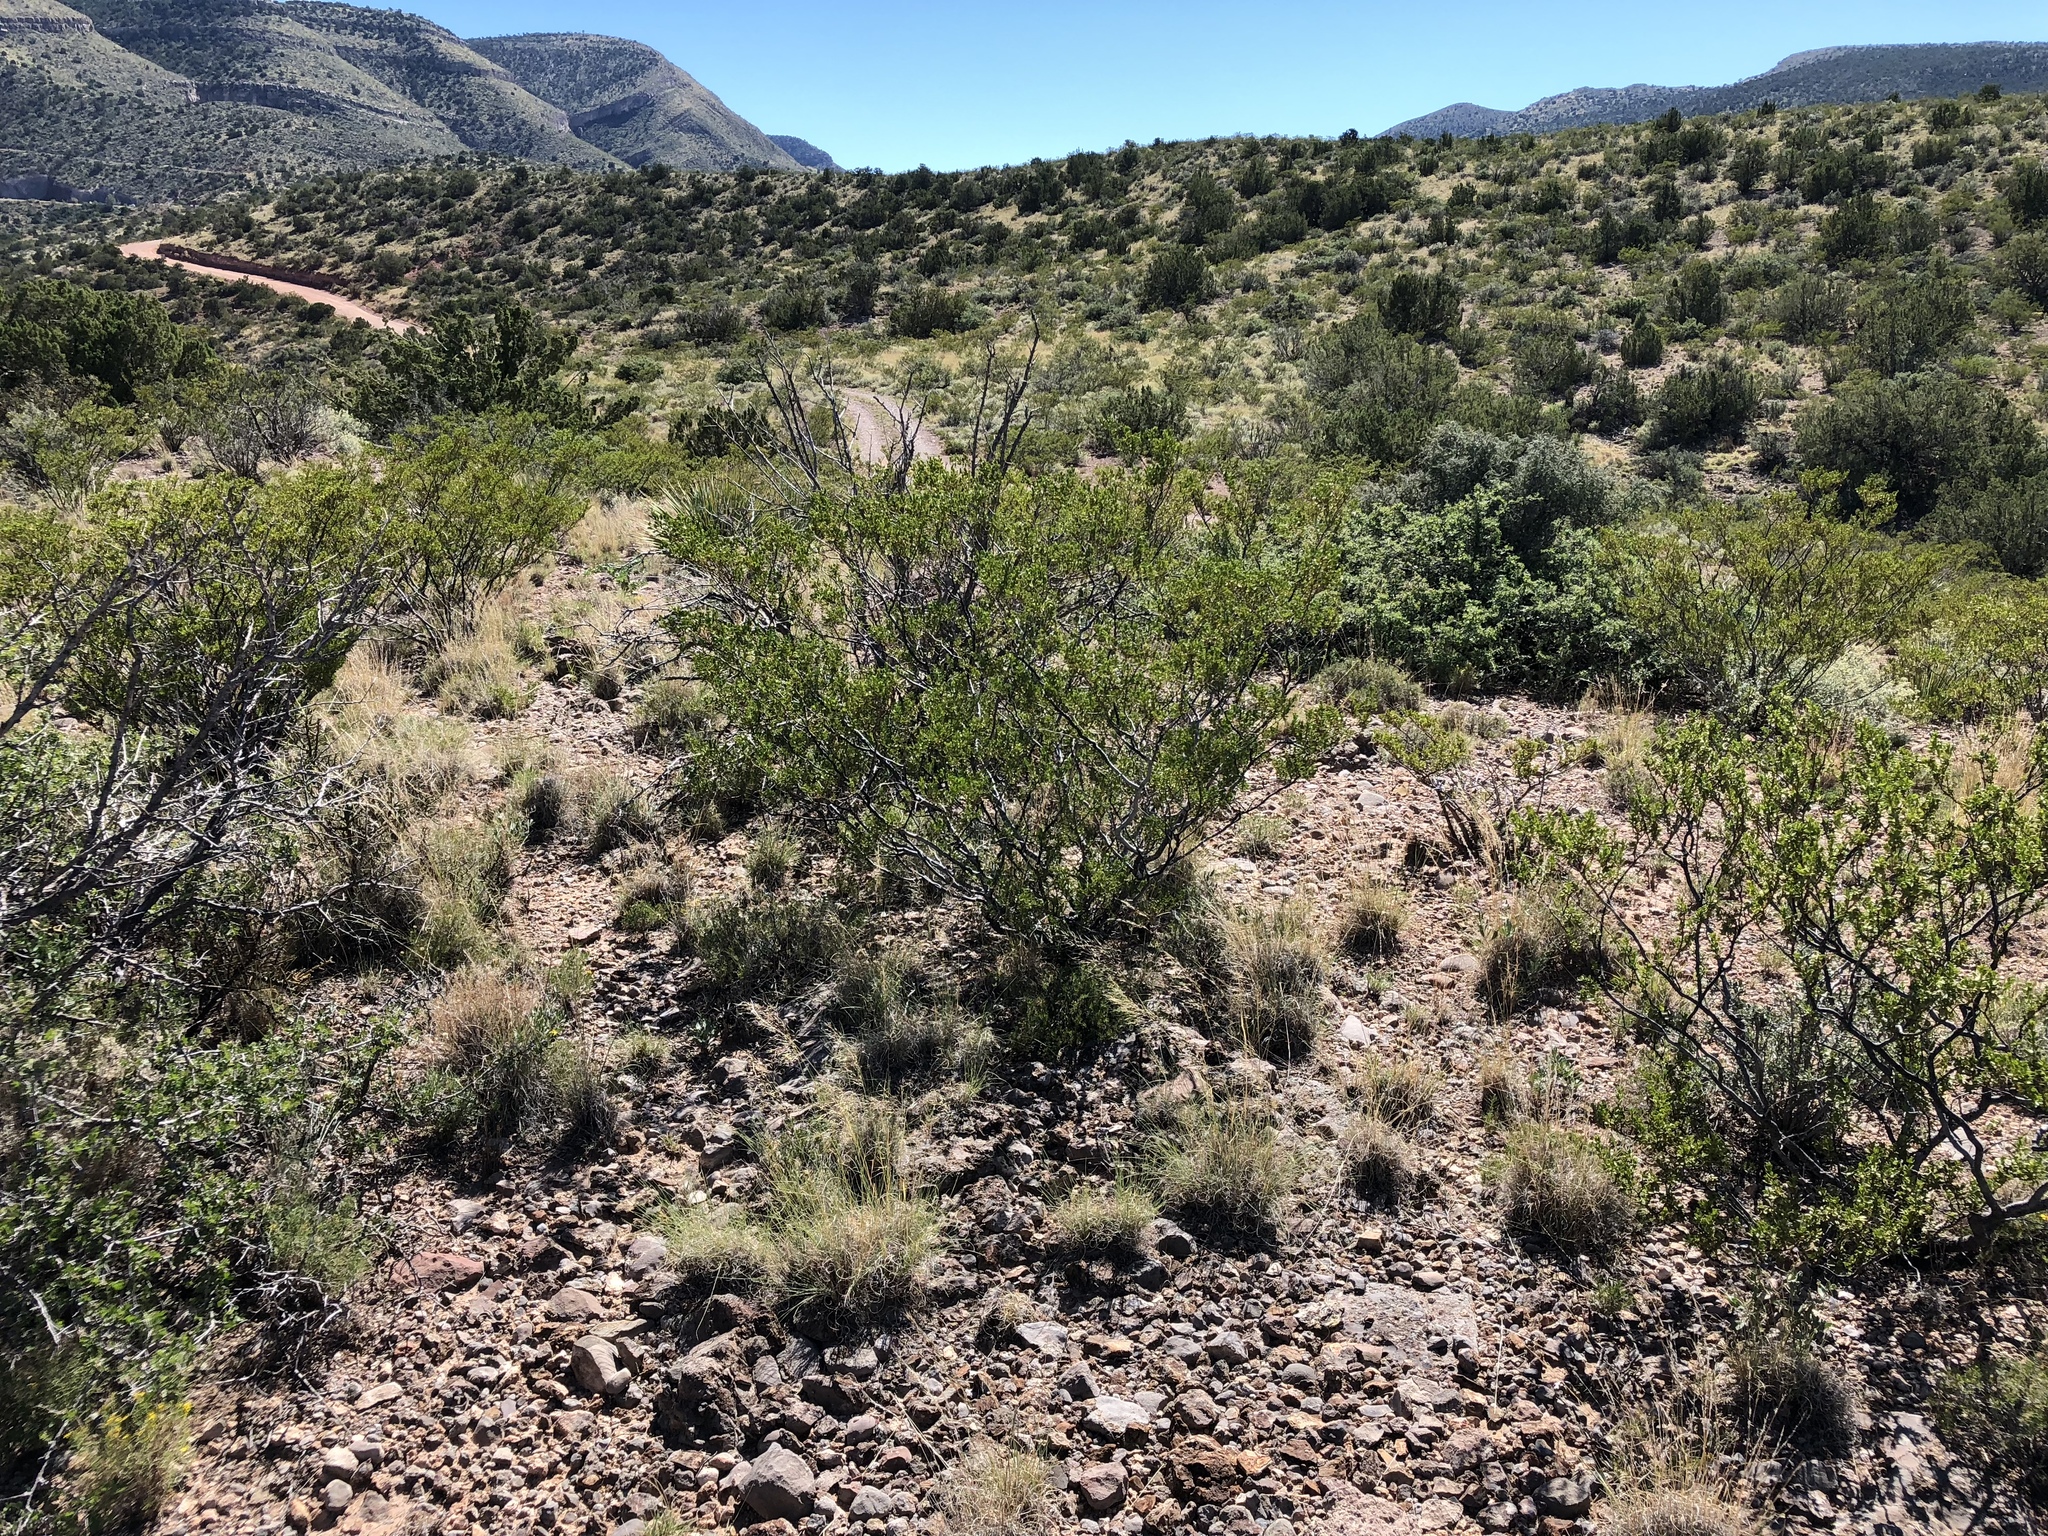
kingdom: Plantae
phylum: Tracheophyta
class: Magnoliopsida
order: Zygophyllales
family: Zygophyllaceae
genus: Larrea
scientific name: Larrea tridentata
